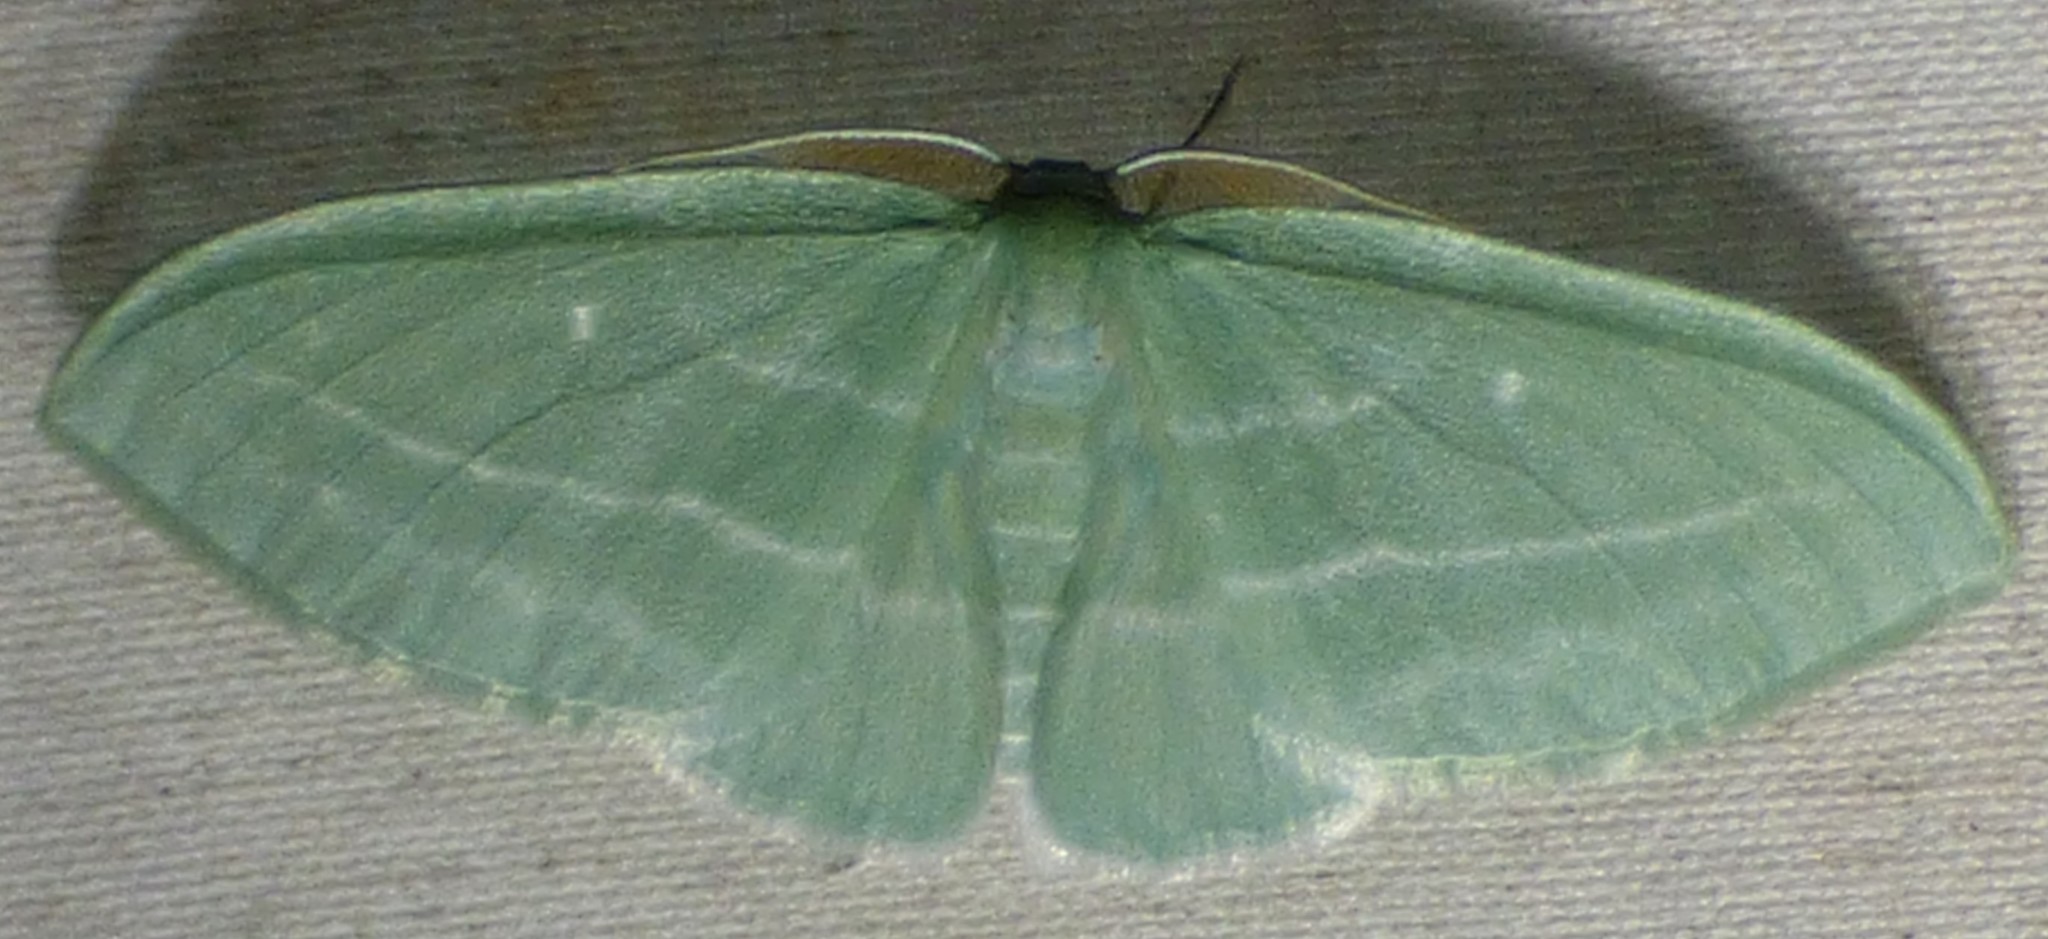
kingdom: Animalia
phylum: Arthropoda
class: Insecta
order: Lepidoptera
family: Geometridae
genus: Dyspteris
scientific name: Dyspteris abortivaria
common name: Bad-wing
